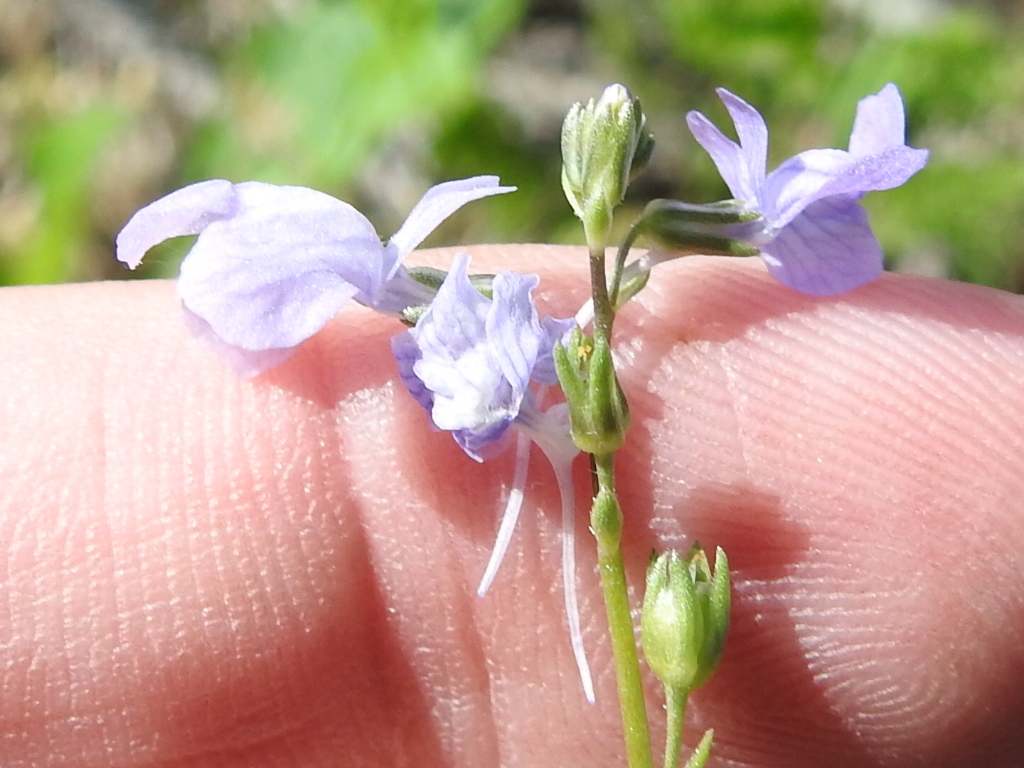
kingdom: Plantae
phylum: Tracheophyta
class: Magnoliopsida
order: Lamiales
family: Plantaginaceae
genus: Nuttallanthus
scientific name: Nuttallanthus texanus
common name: Texas toadflax
